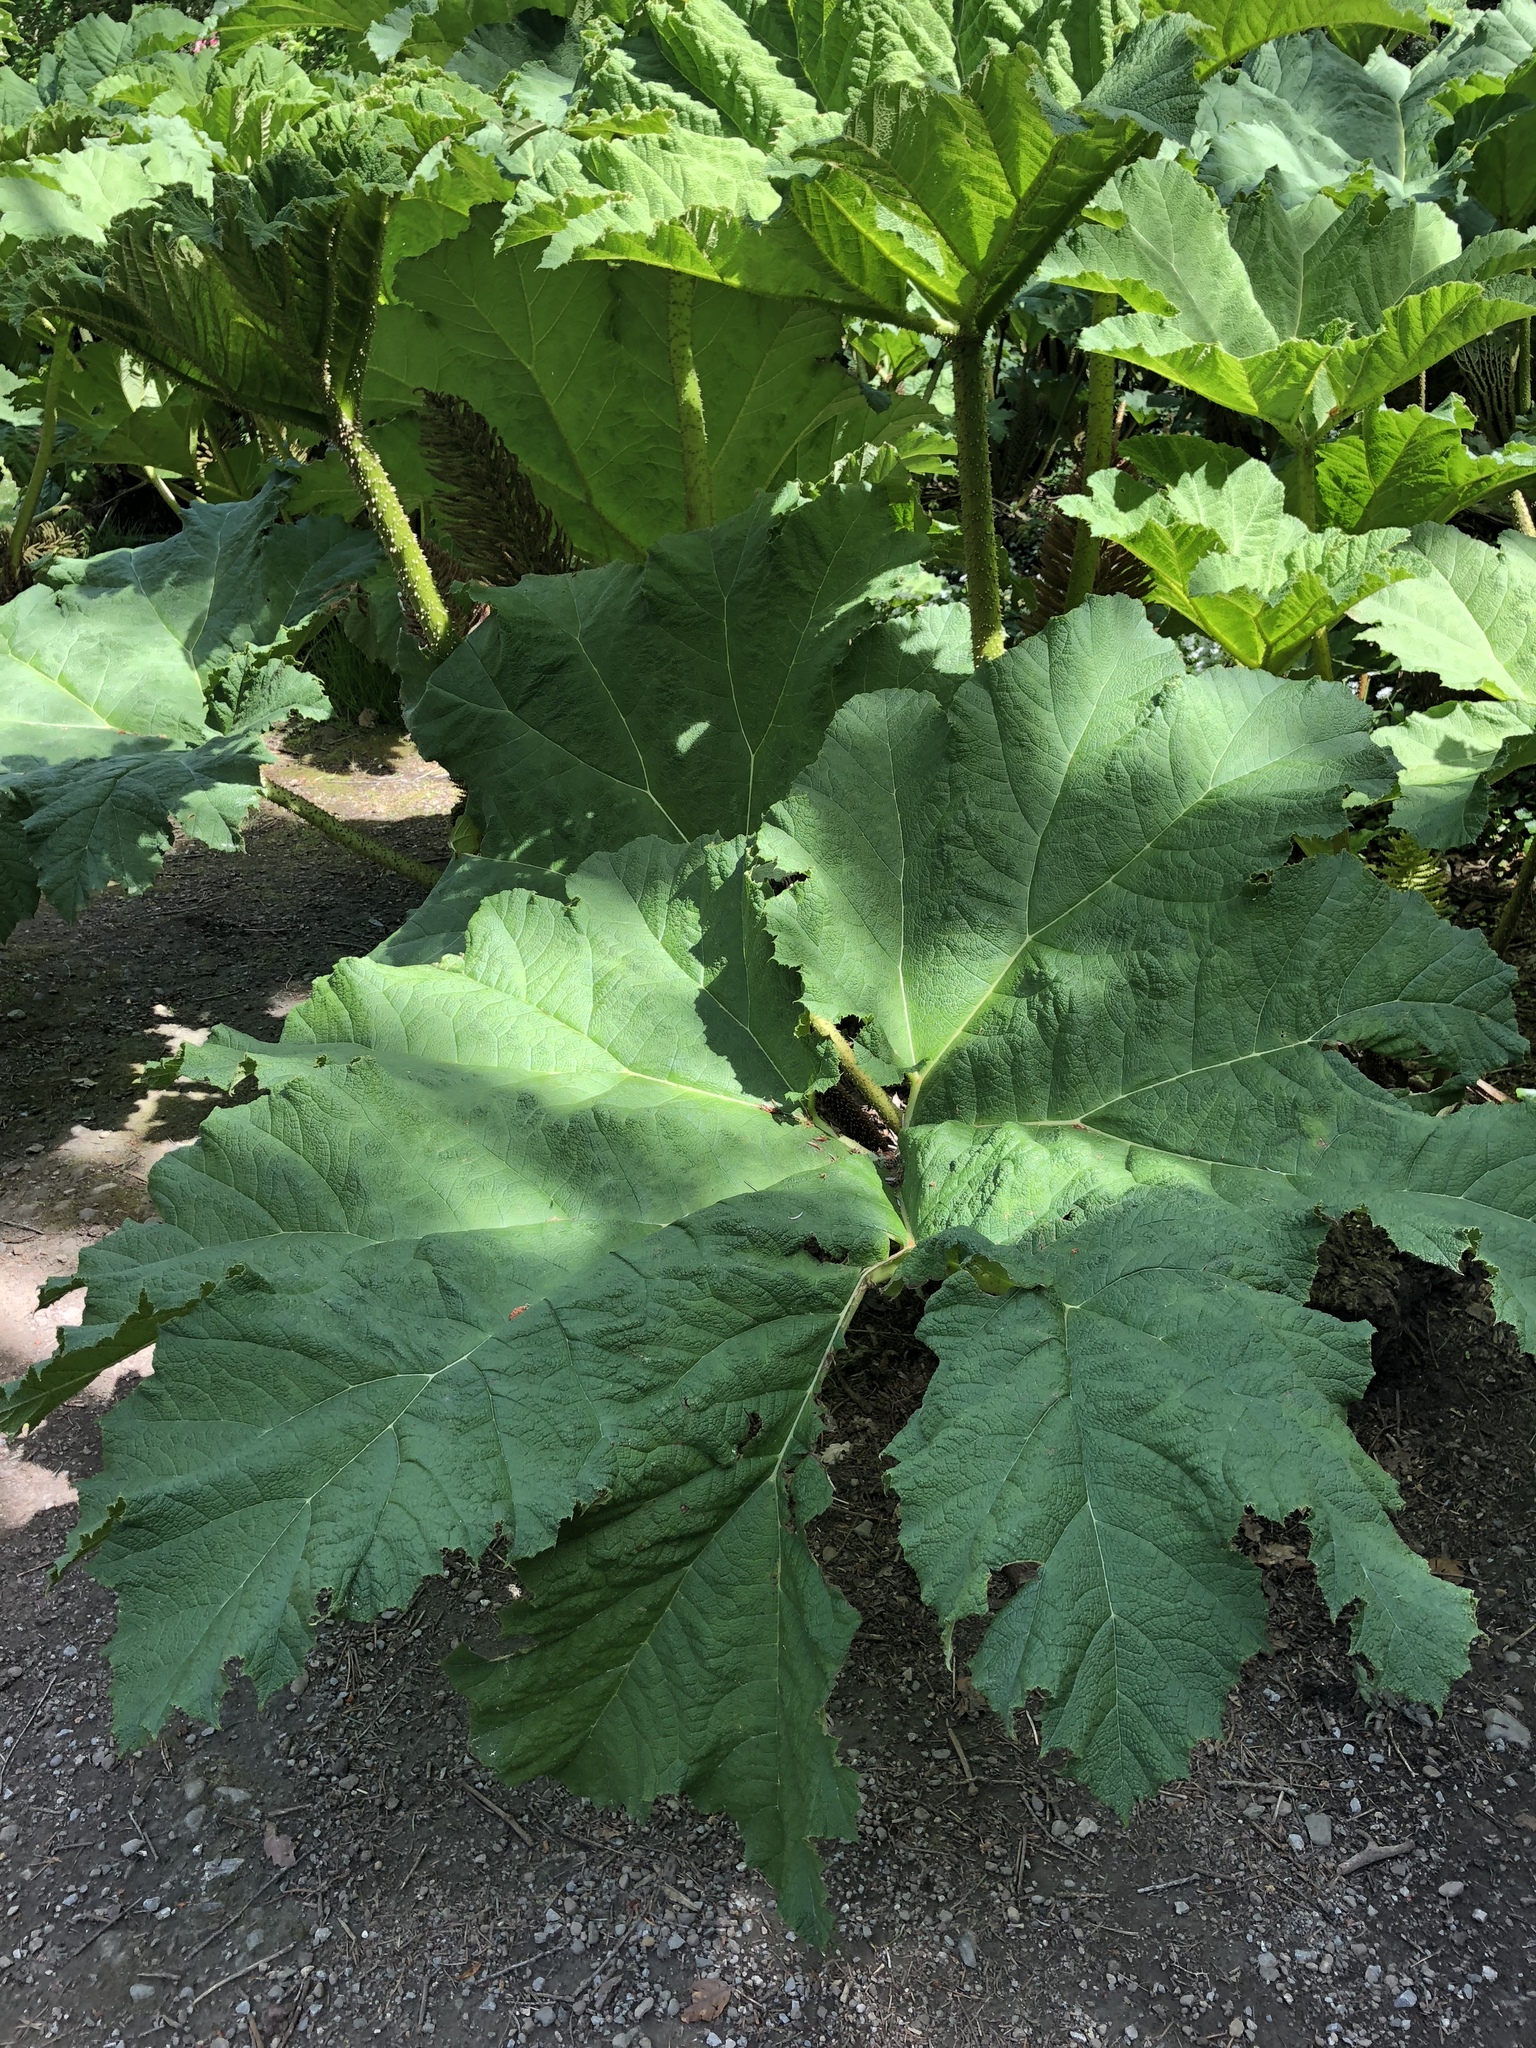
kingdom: Plantae
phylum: Tracheophyta
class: Magnoliopsida
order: Gunnerales
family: Gunneraceae
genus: Gunnera
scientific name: Gunnera tinctoria
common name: Giant-rhubarb
